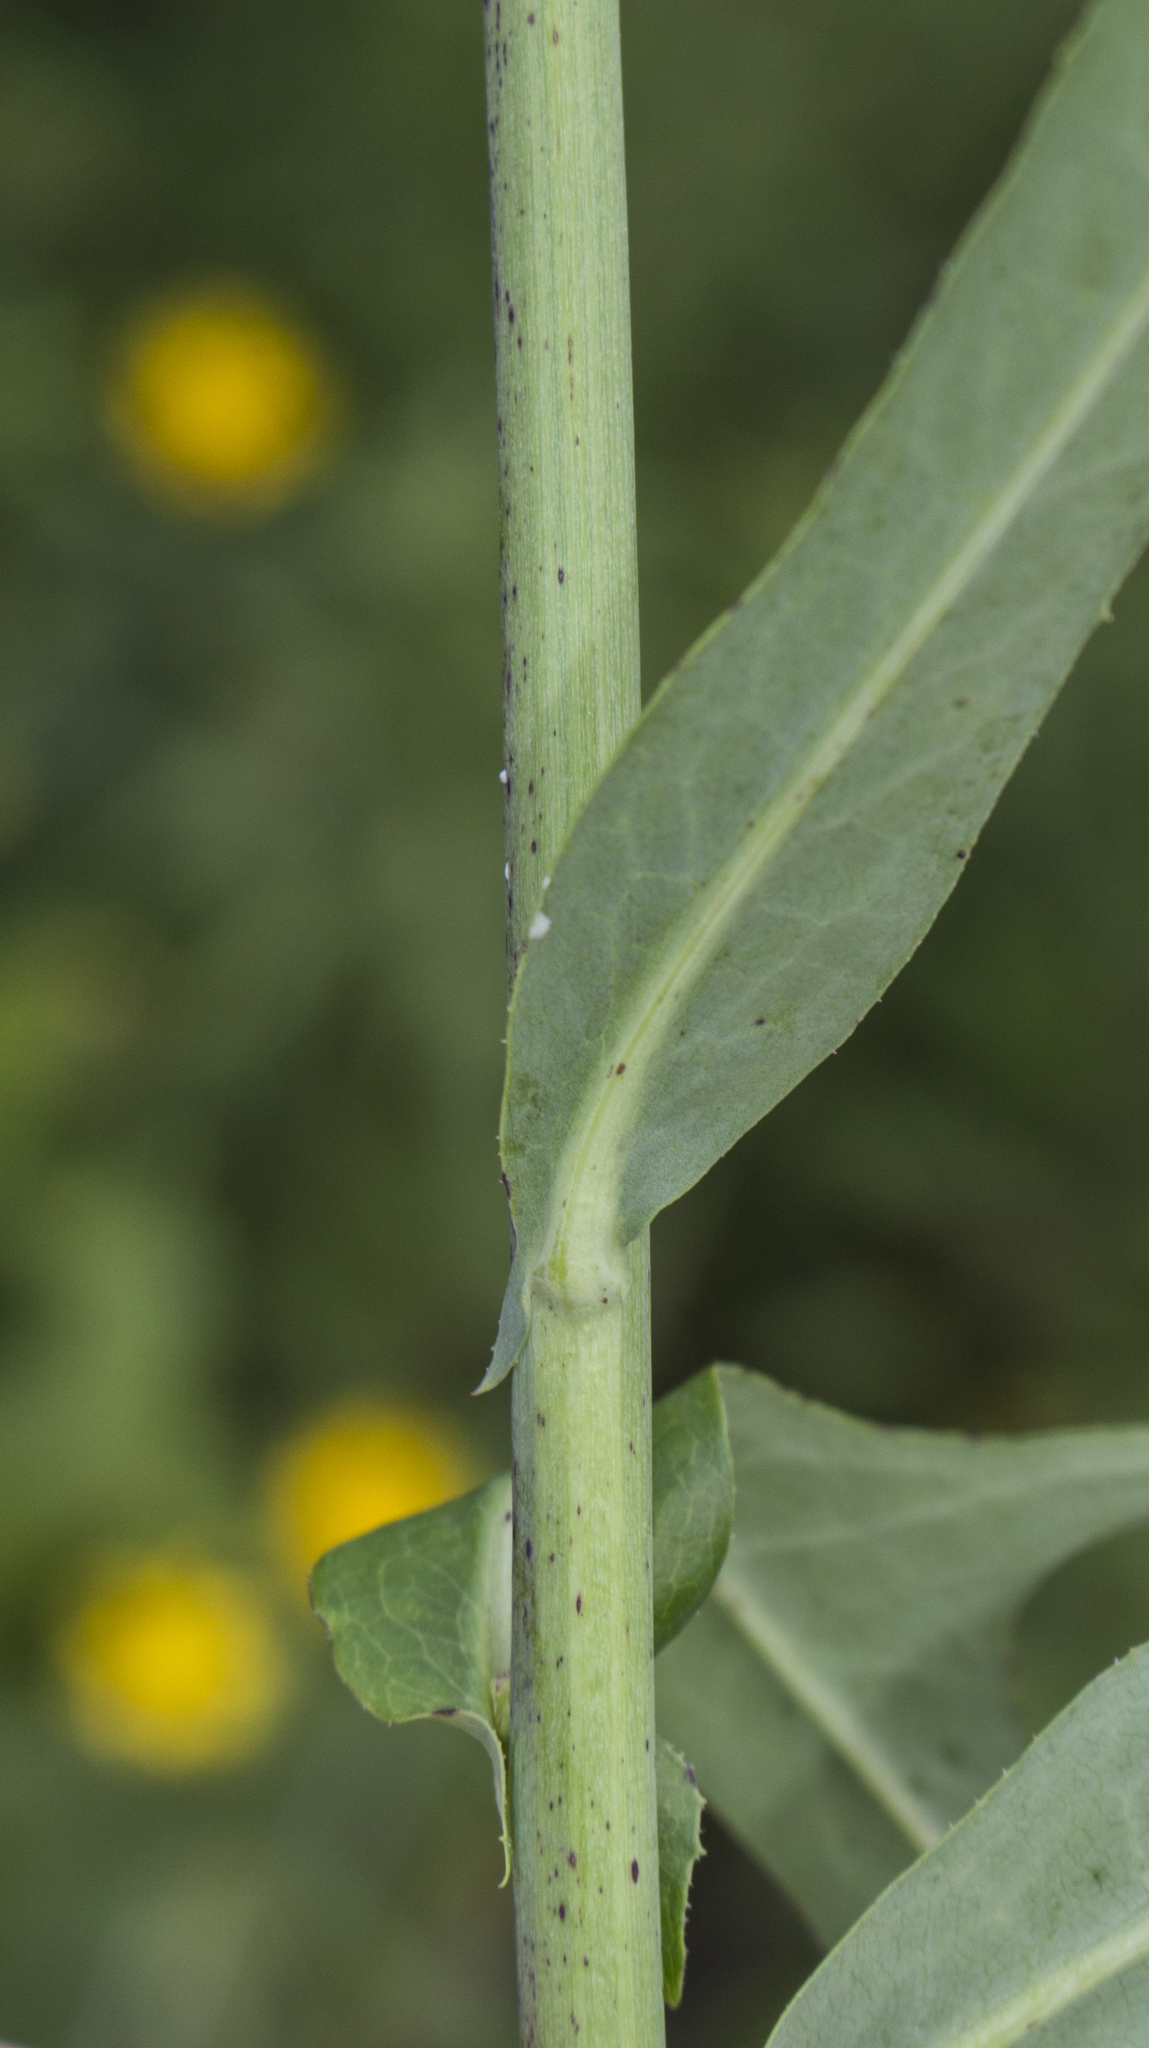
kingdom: Plantae
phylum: Tracheophyta
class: Magnoliopsida
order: Asterales
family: Asteraceae
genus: Lactuca
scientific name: Lactuca canadensis
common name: Canada lettuce
